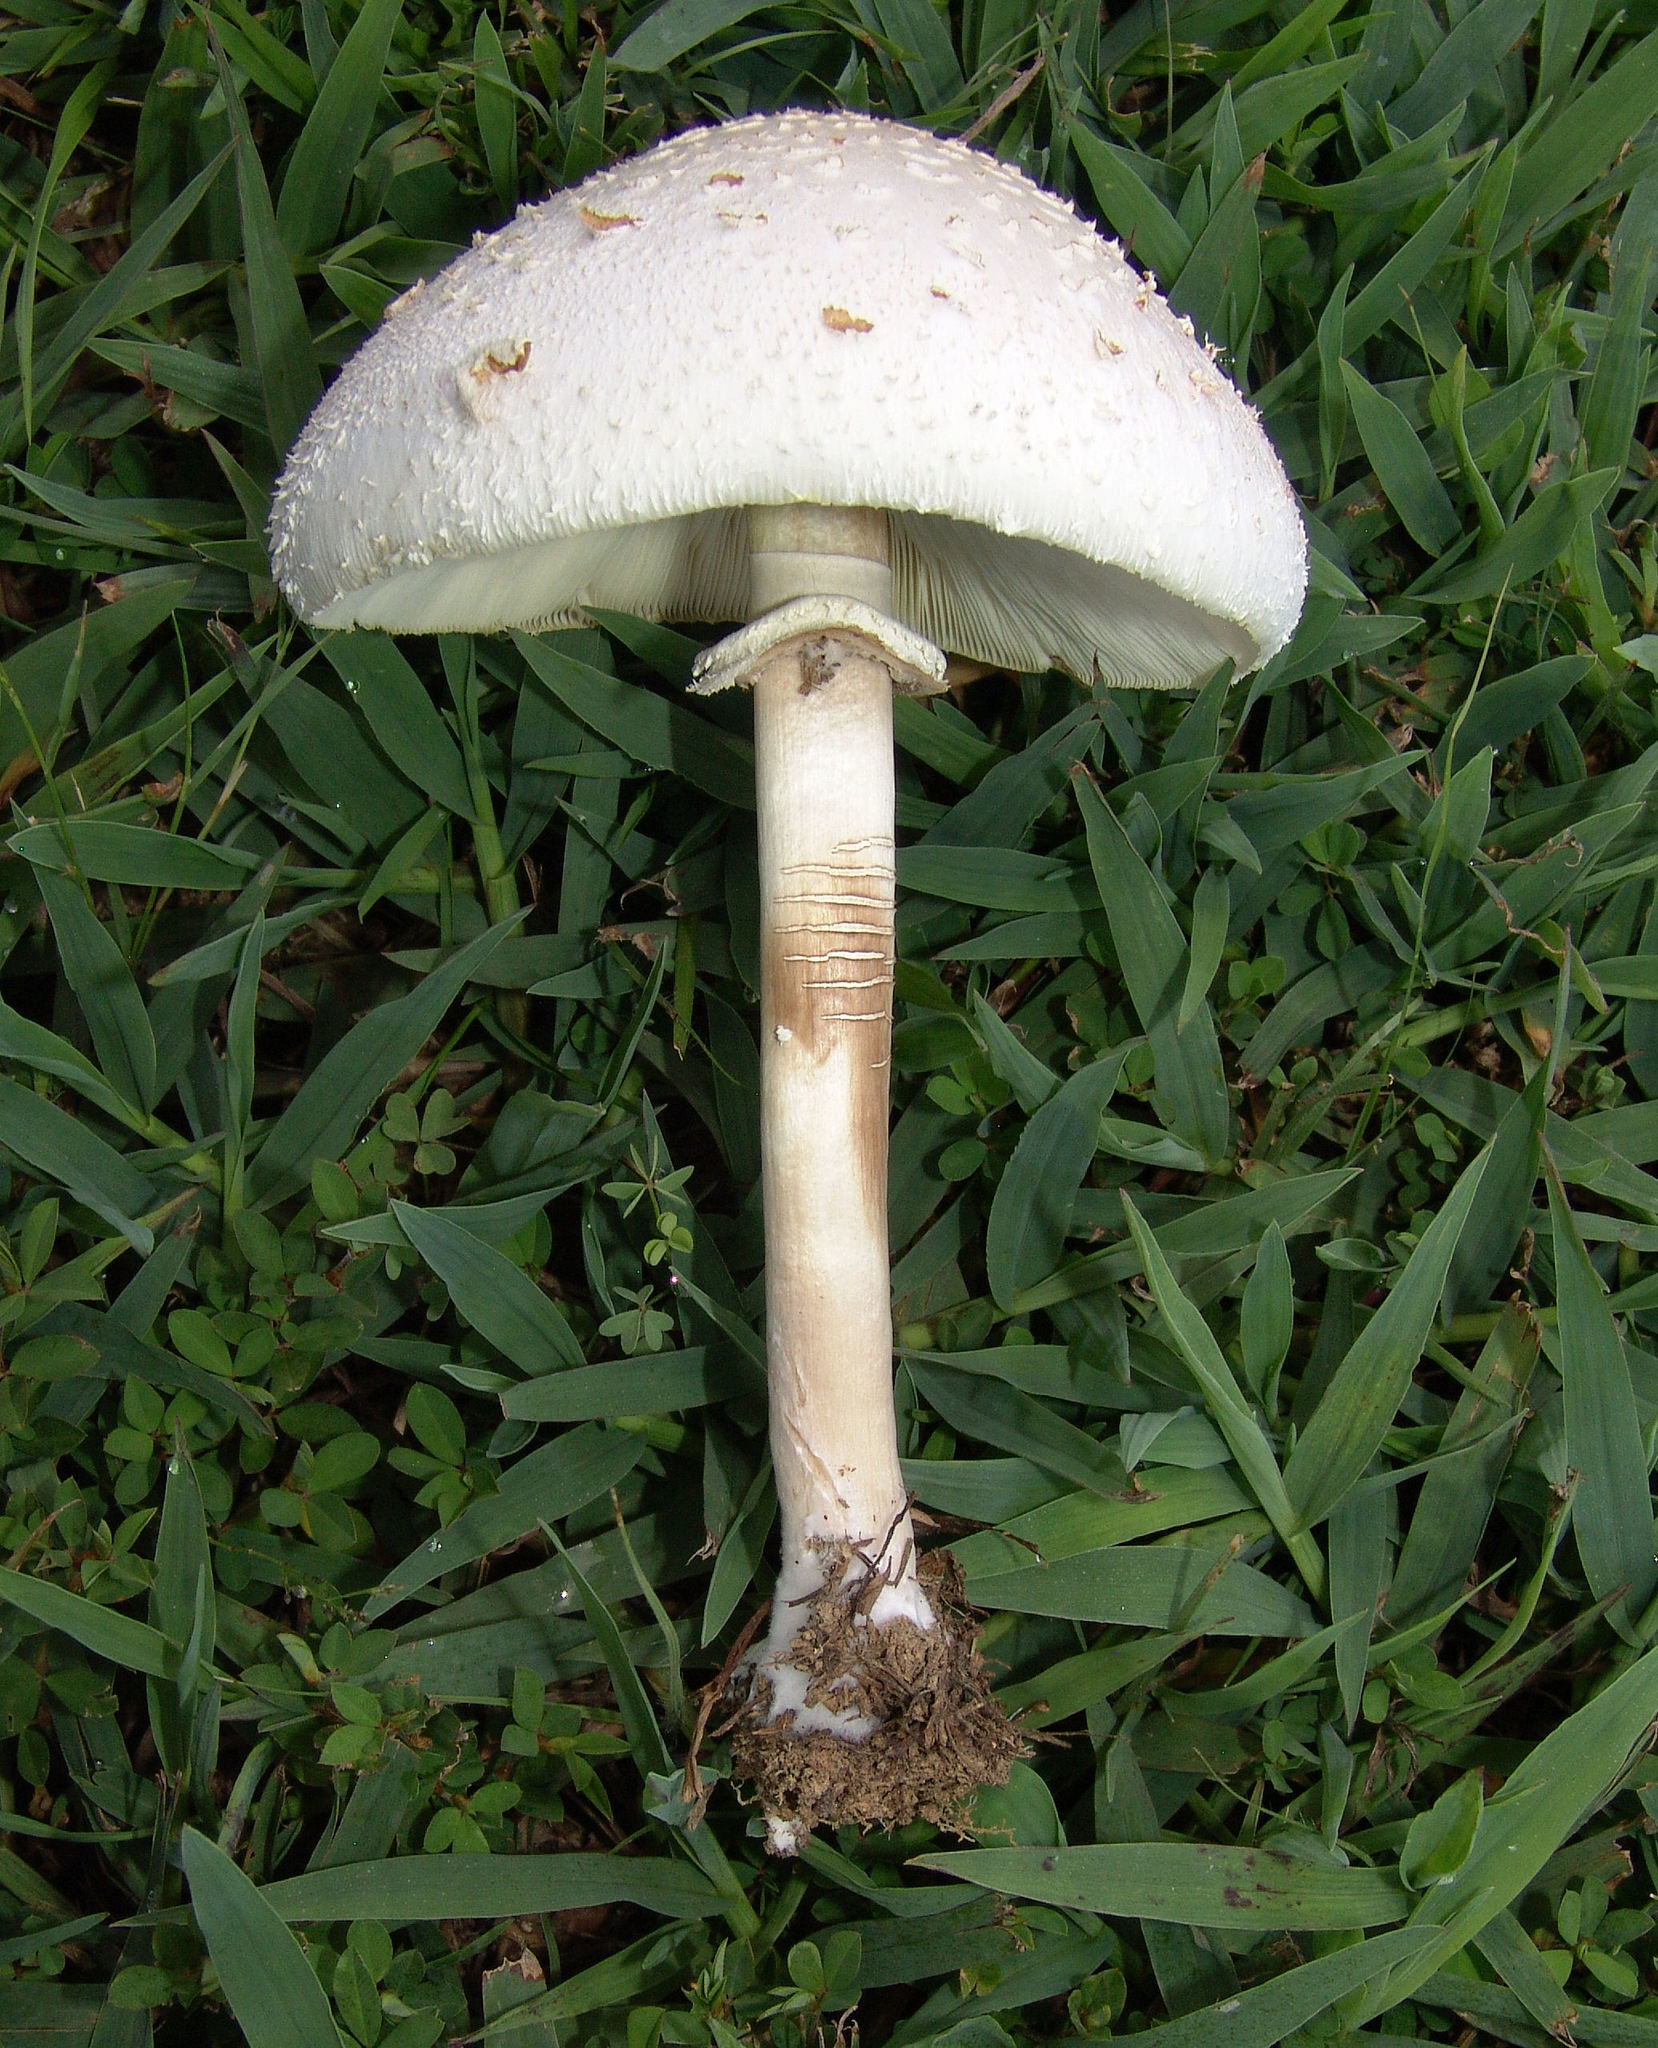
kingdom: Fungi
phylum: Basidiomycota
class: Agaricomycetes
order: Agaricales
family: Agaricaceae
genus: Chlorophyllum
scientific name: Chlorophyllum molybdites
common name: False parasol
